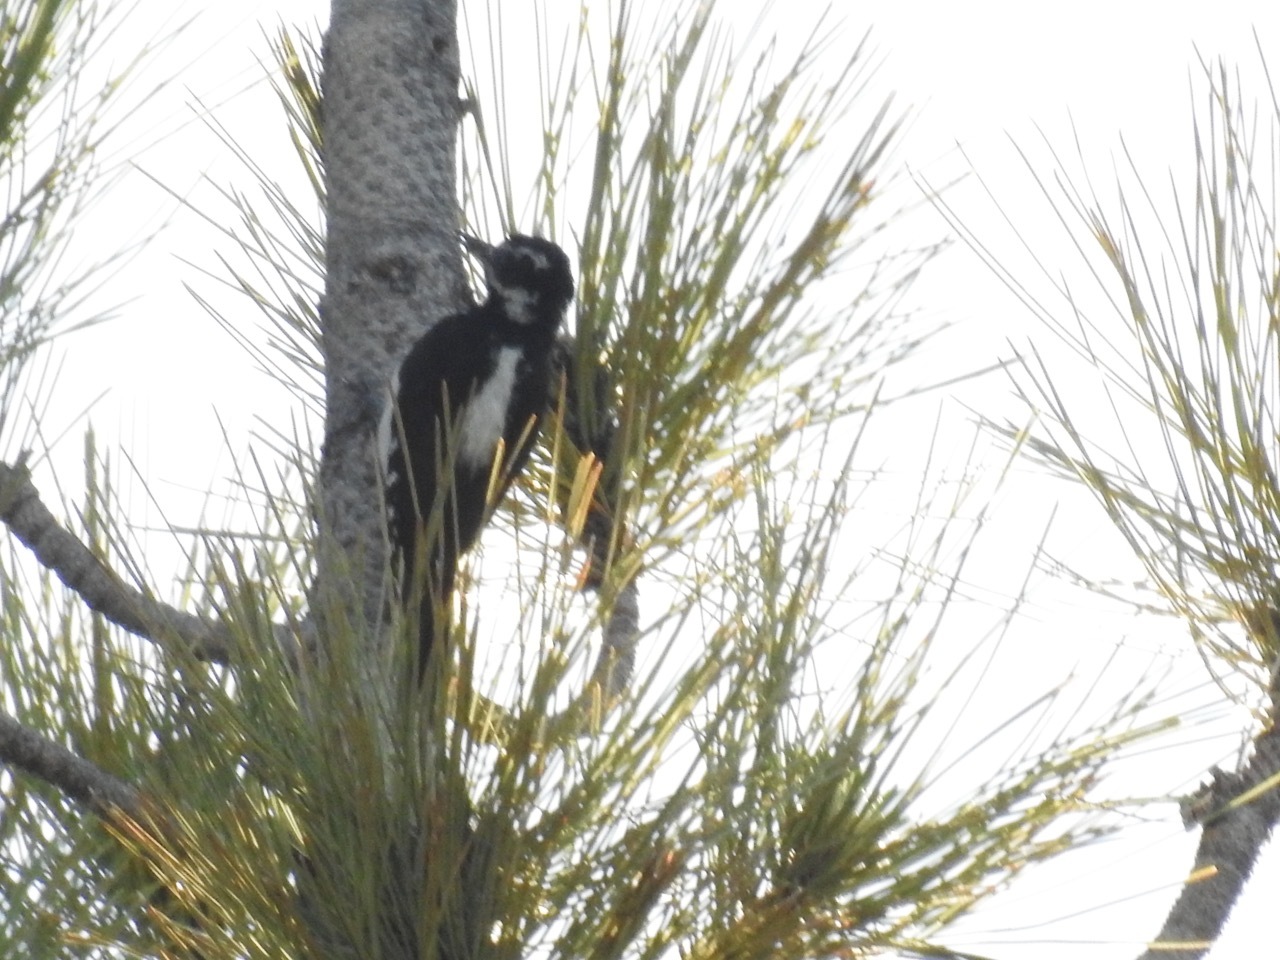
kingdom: Animalia
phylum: Chordata
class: Aves
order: Piciformes
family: Picidae
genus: Leuconotopicus
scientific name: Leuconotopicus villosus
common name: Hairy woodpecker
